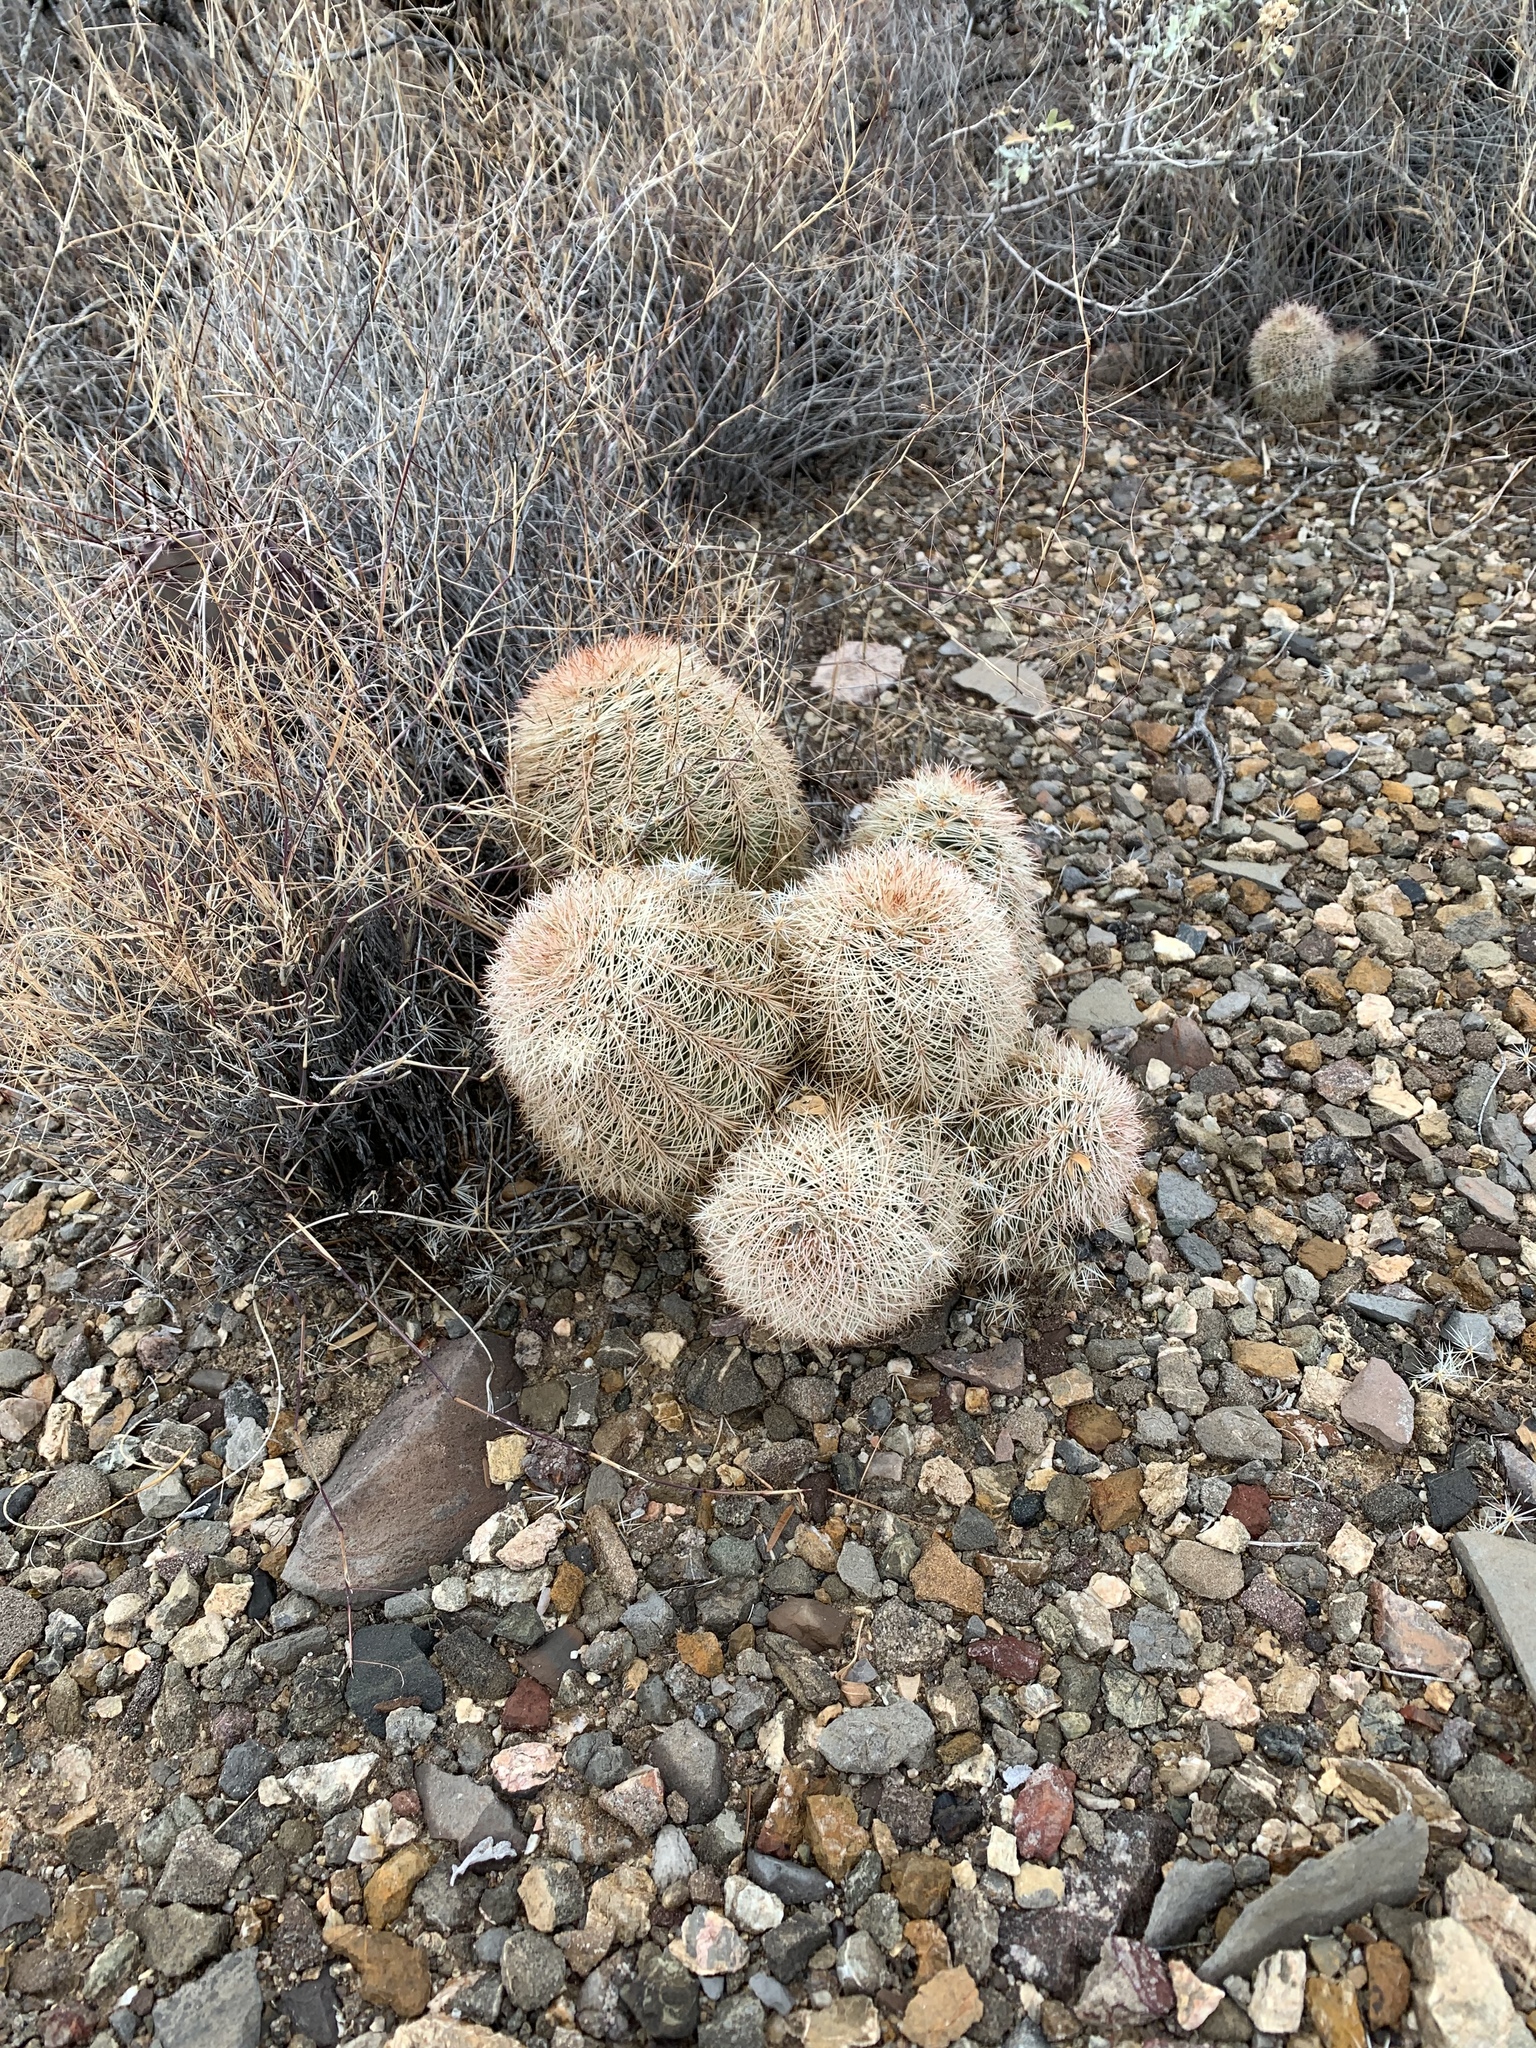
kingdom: Plantae
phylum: Tracheophyta
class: Magnoliopsida
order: Caryophyllales
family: Cactaceae
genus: Echinocereus
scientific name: Echinocereus dasyacanthus
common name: Spiny hedgehog cactus
